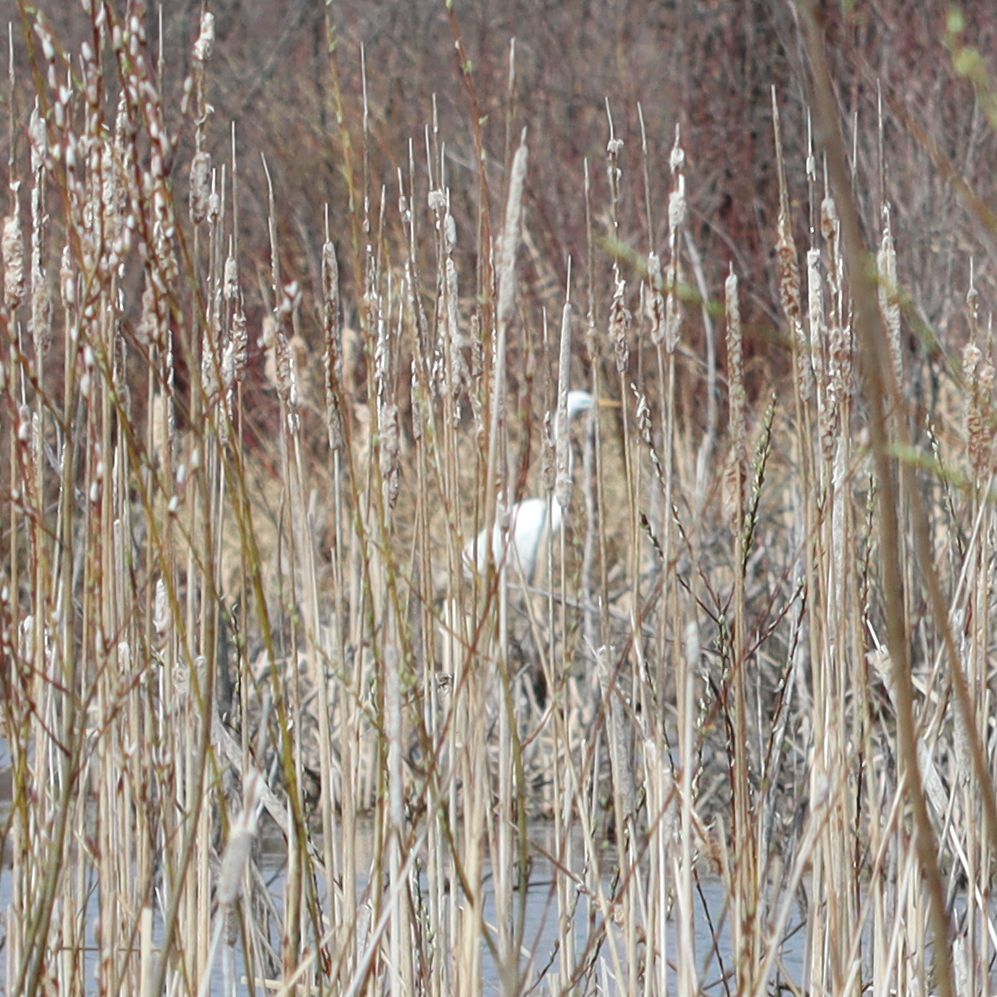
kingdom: Animalia
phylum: Chordata
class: Aves
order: Pelecaniformes
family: Ardeidae
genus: Ardea
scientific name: Ardea alba
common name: Great egret
